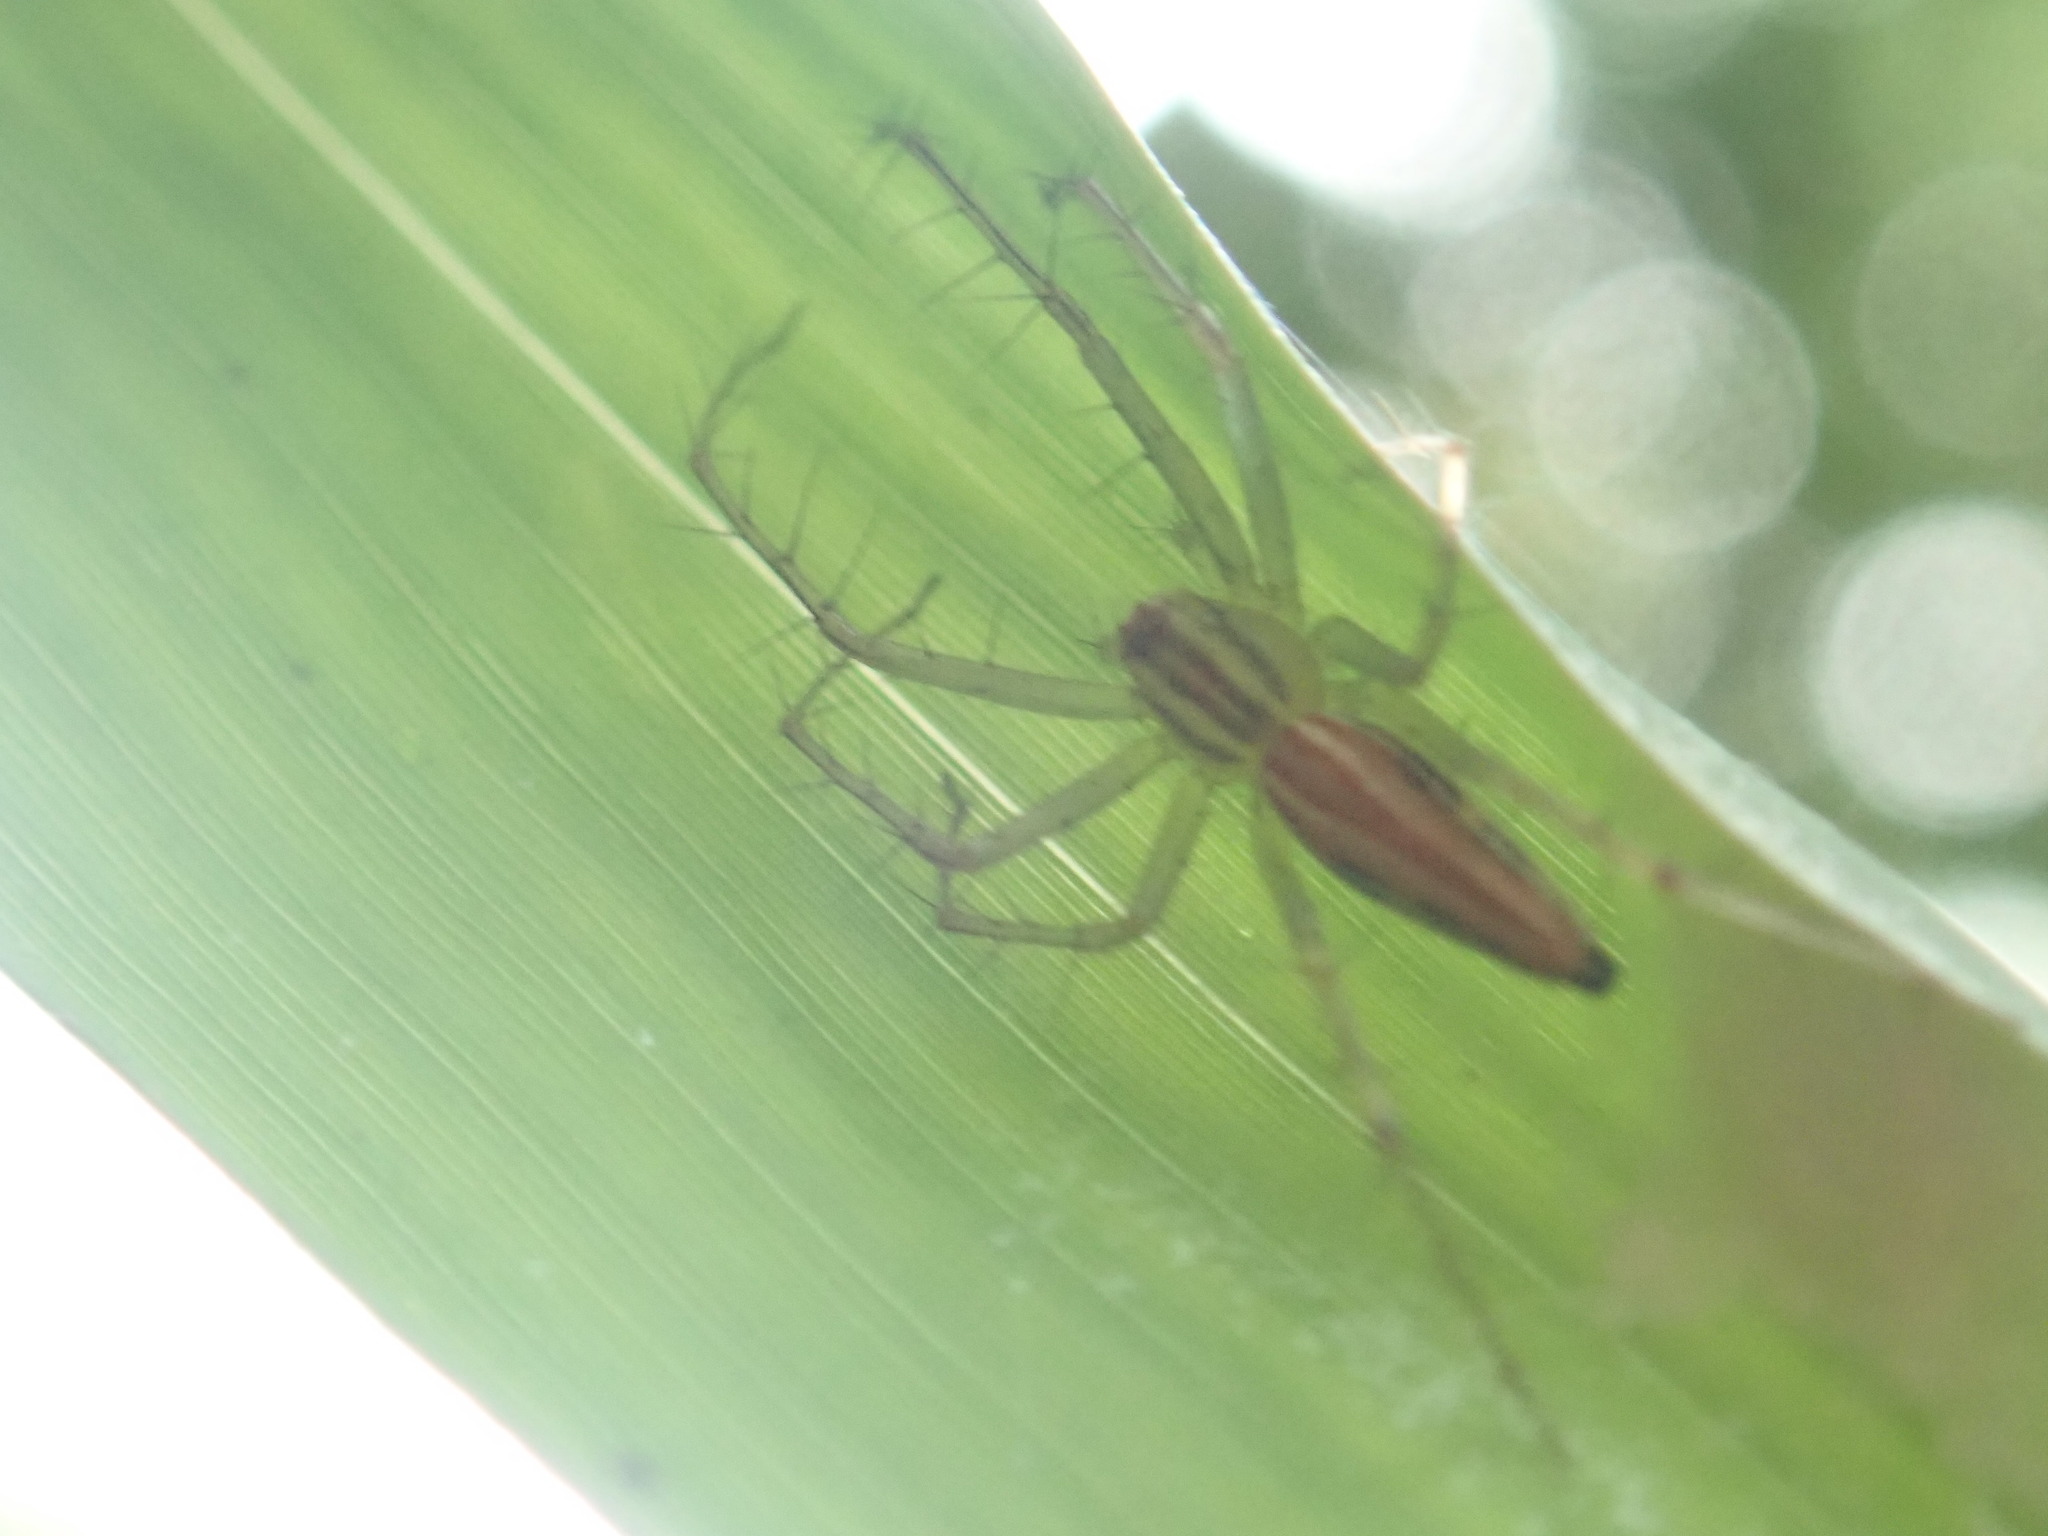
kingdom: Animalia
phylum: Arthropoda
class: Arachnida
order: Araneae
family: Oxyopidae
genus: Oxyopes
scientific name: Oxyopes macilentus
